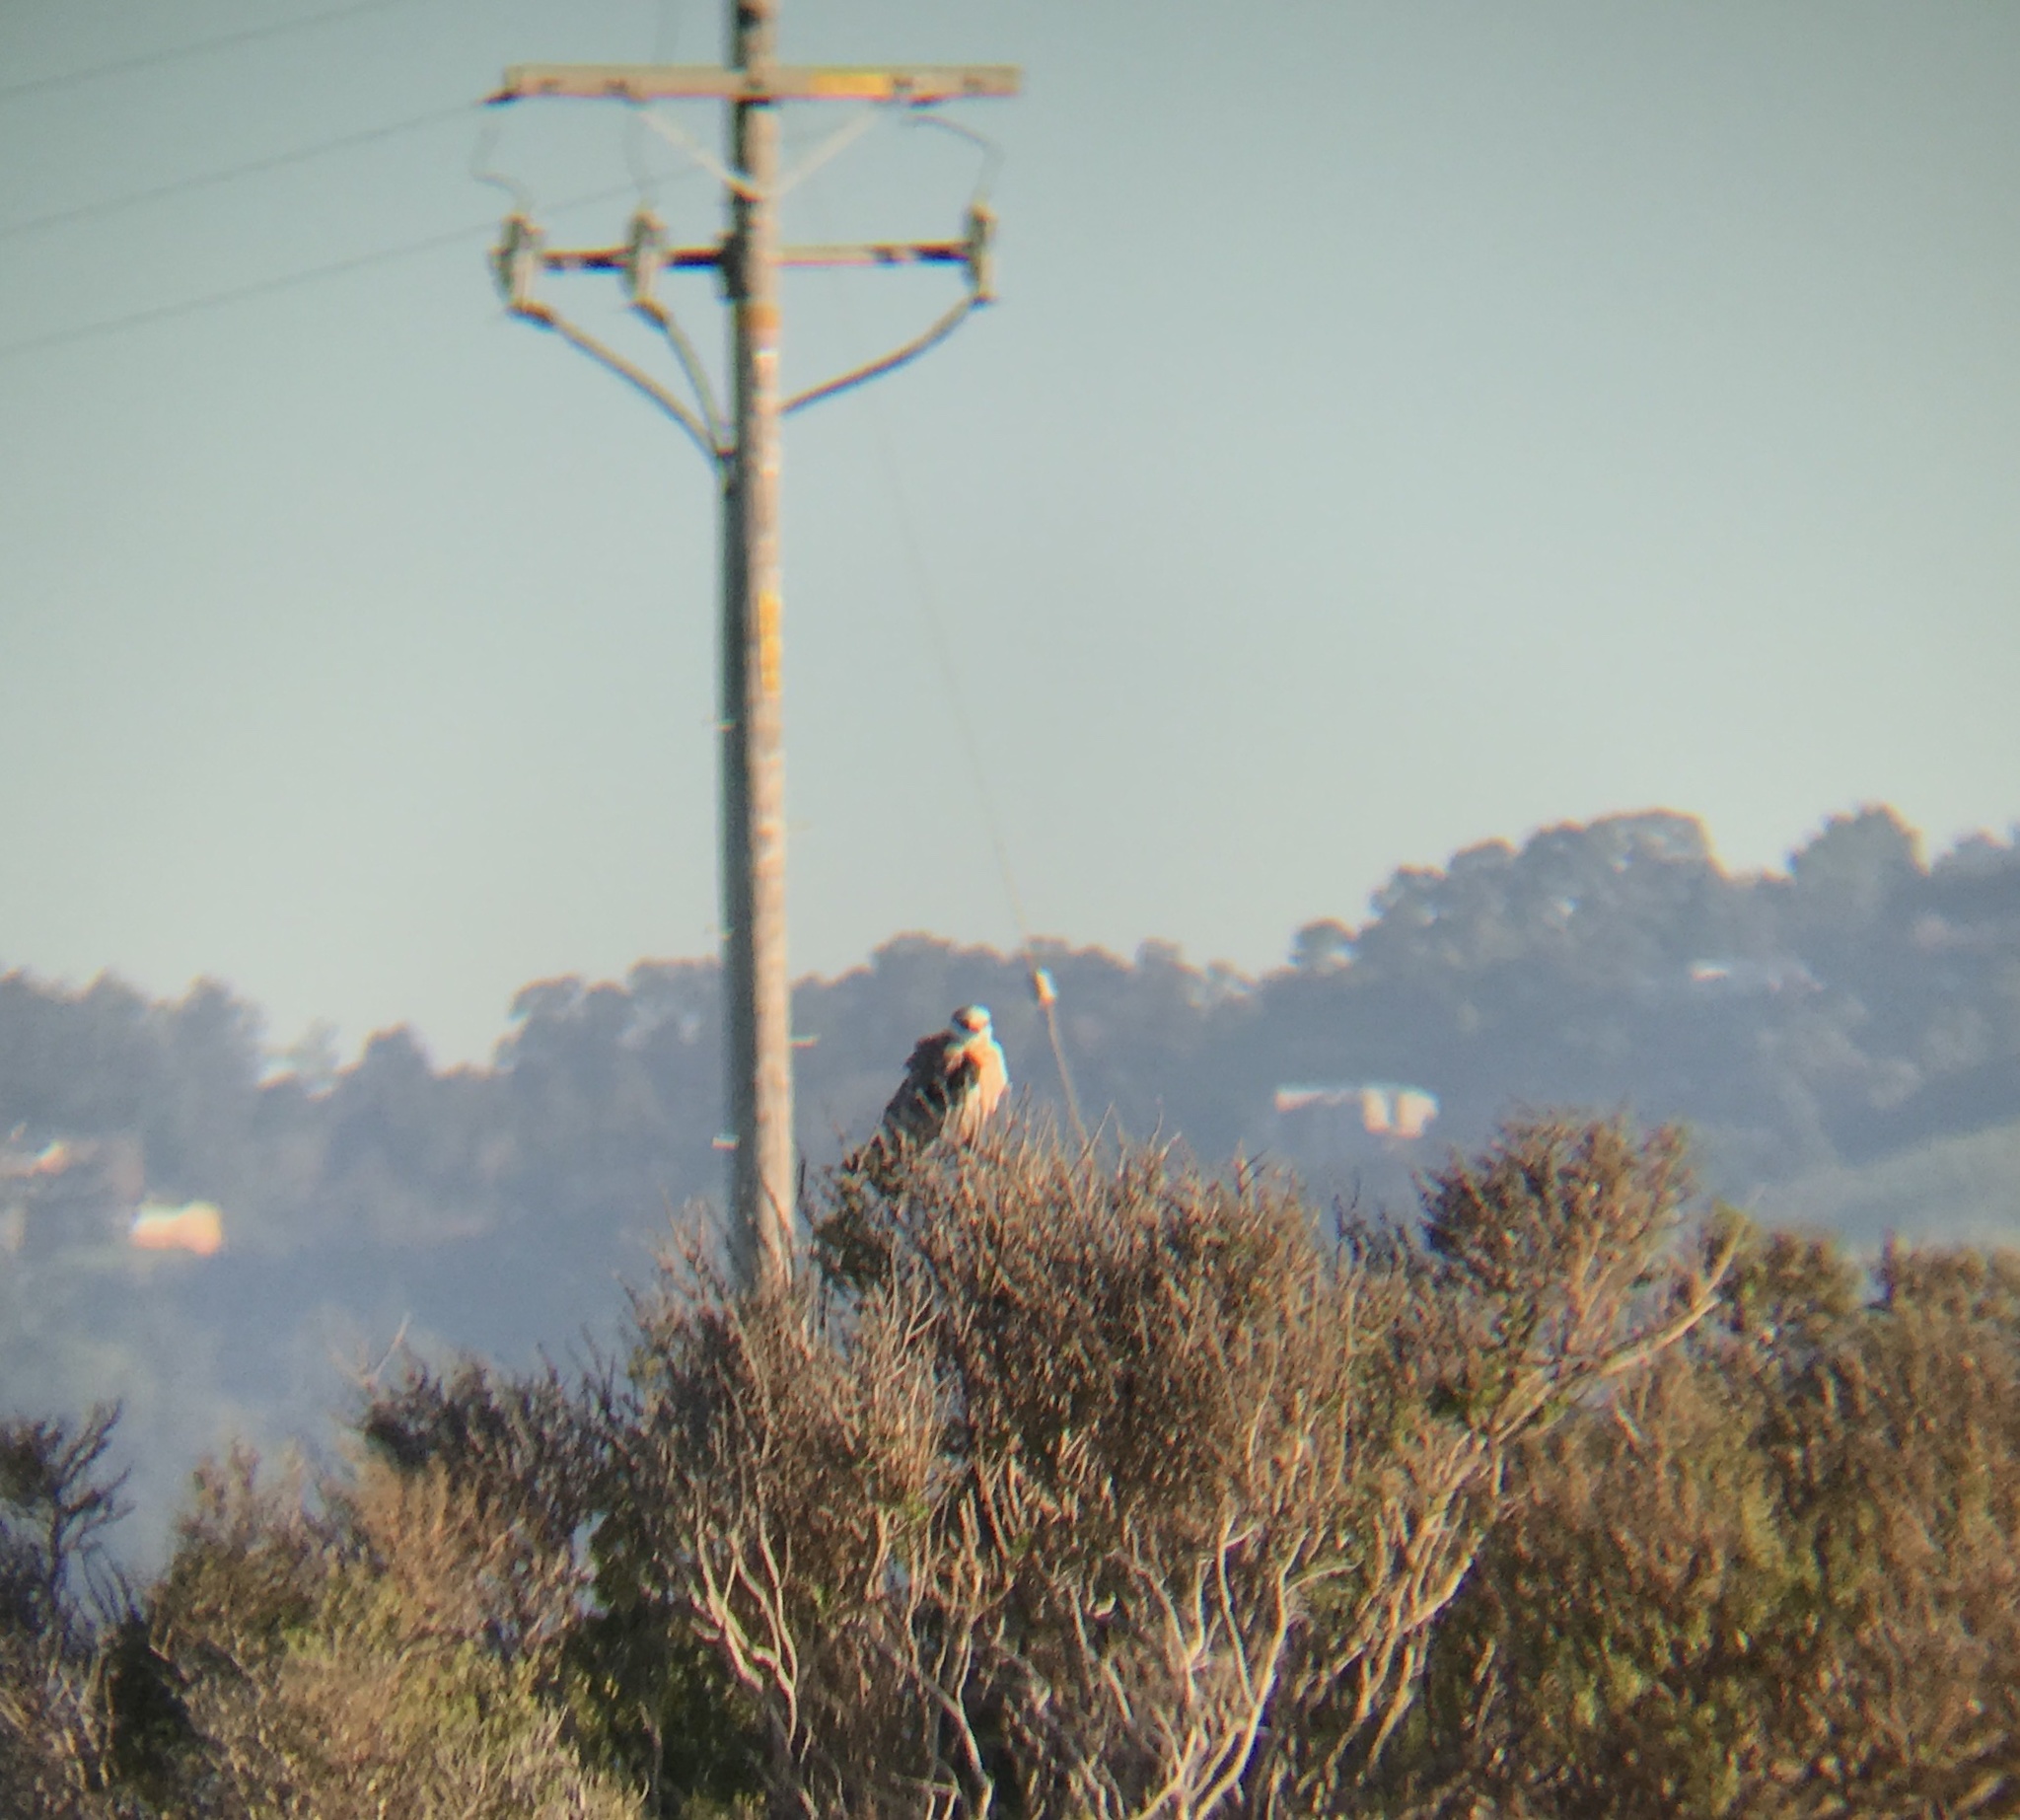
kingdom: Animalia
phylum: Chordata
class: Aves
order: Accipitriformes
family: Accipitridae
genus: Elanus
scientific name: Elanus leucurus
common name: White-tailed kite
